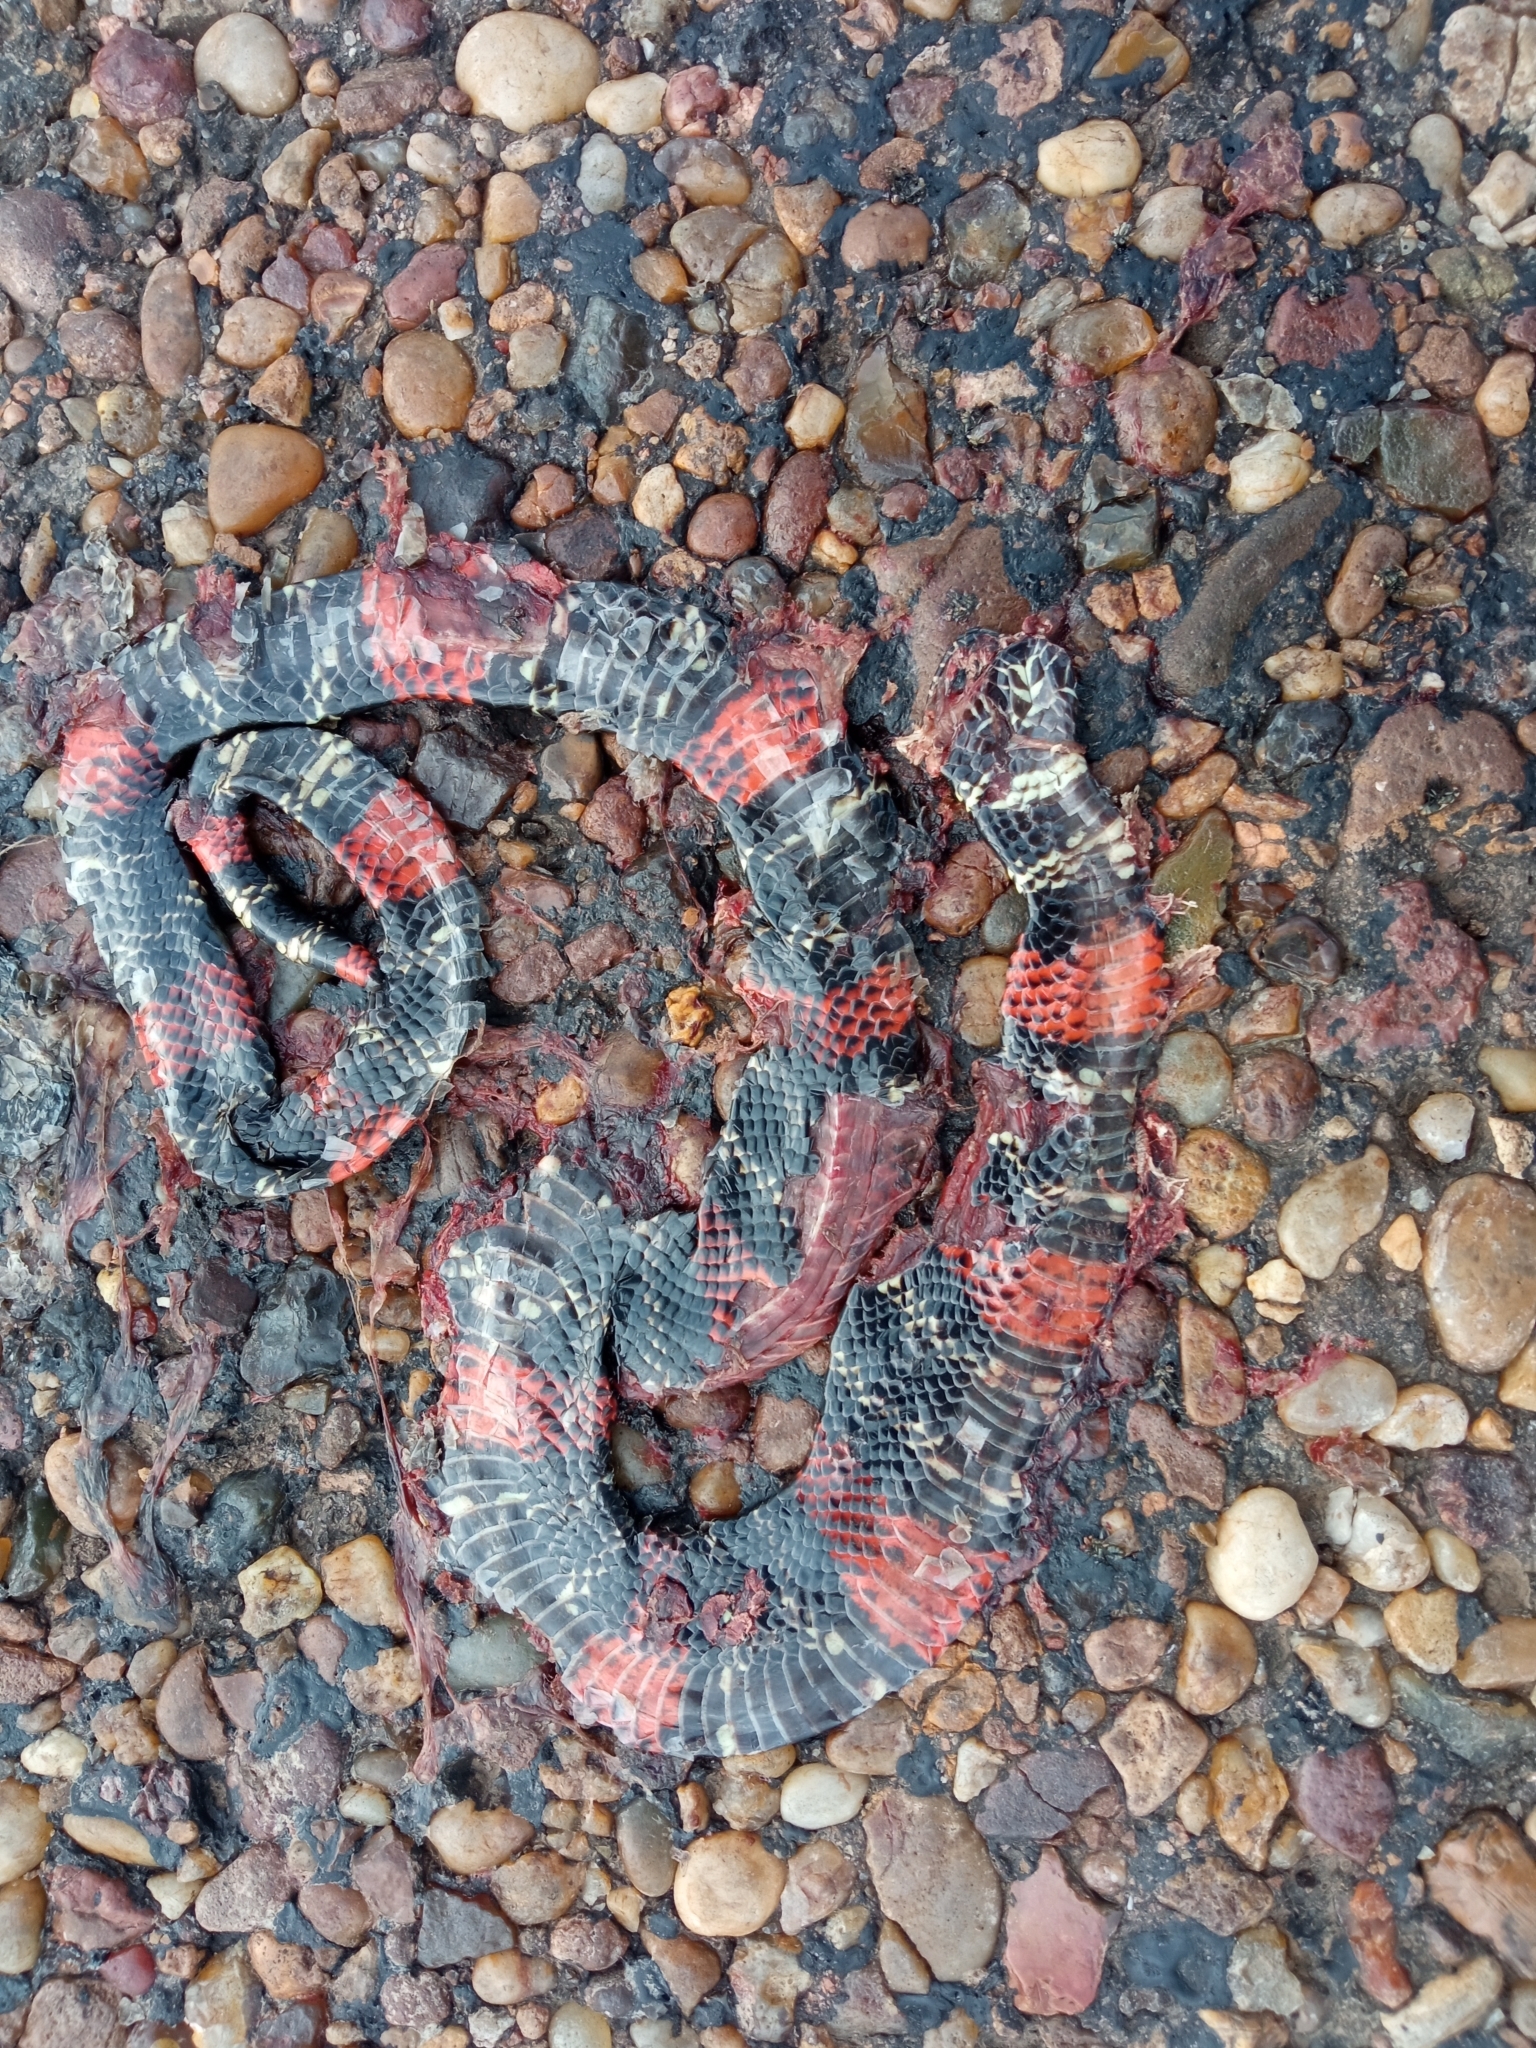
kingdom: Animalia
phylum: Chordata
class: Squamata
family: Elapidae
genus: Micrurus
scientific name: Micrurus altirostris
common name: Uruguayan coral snake
